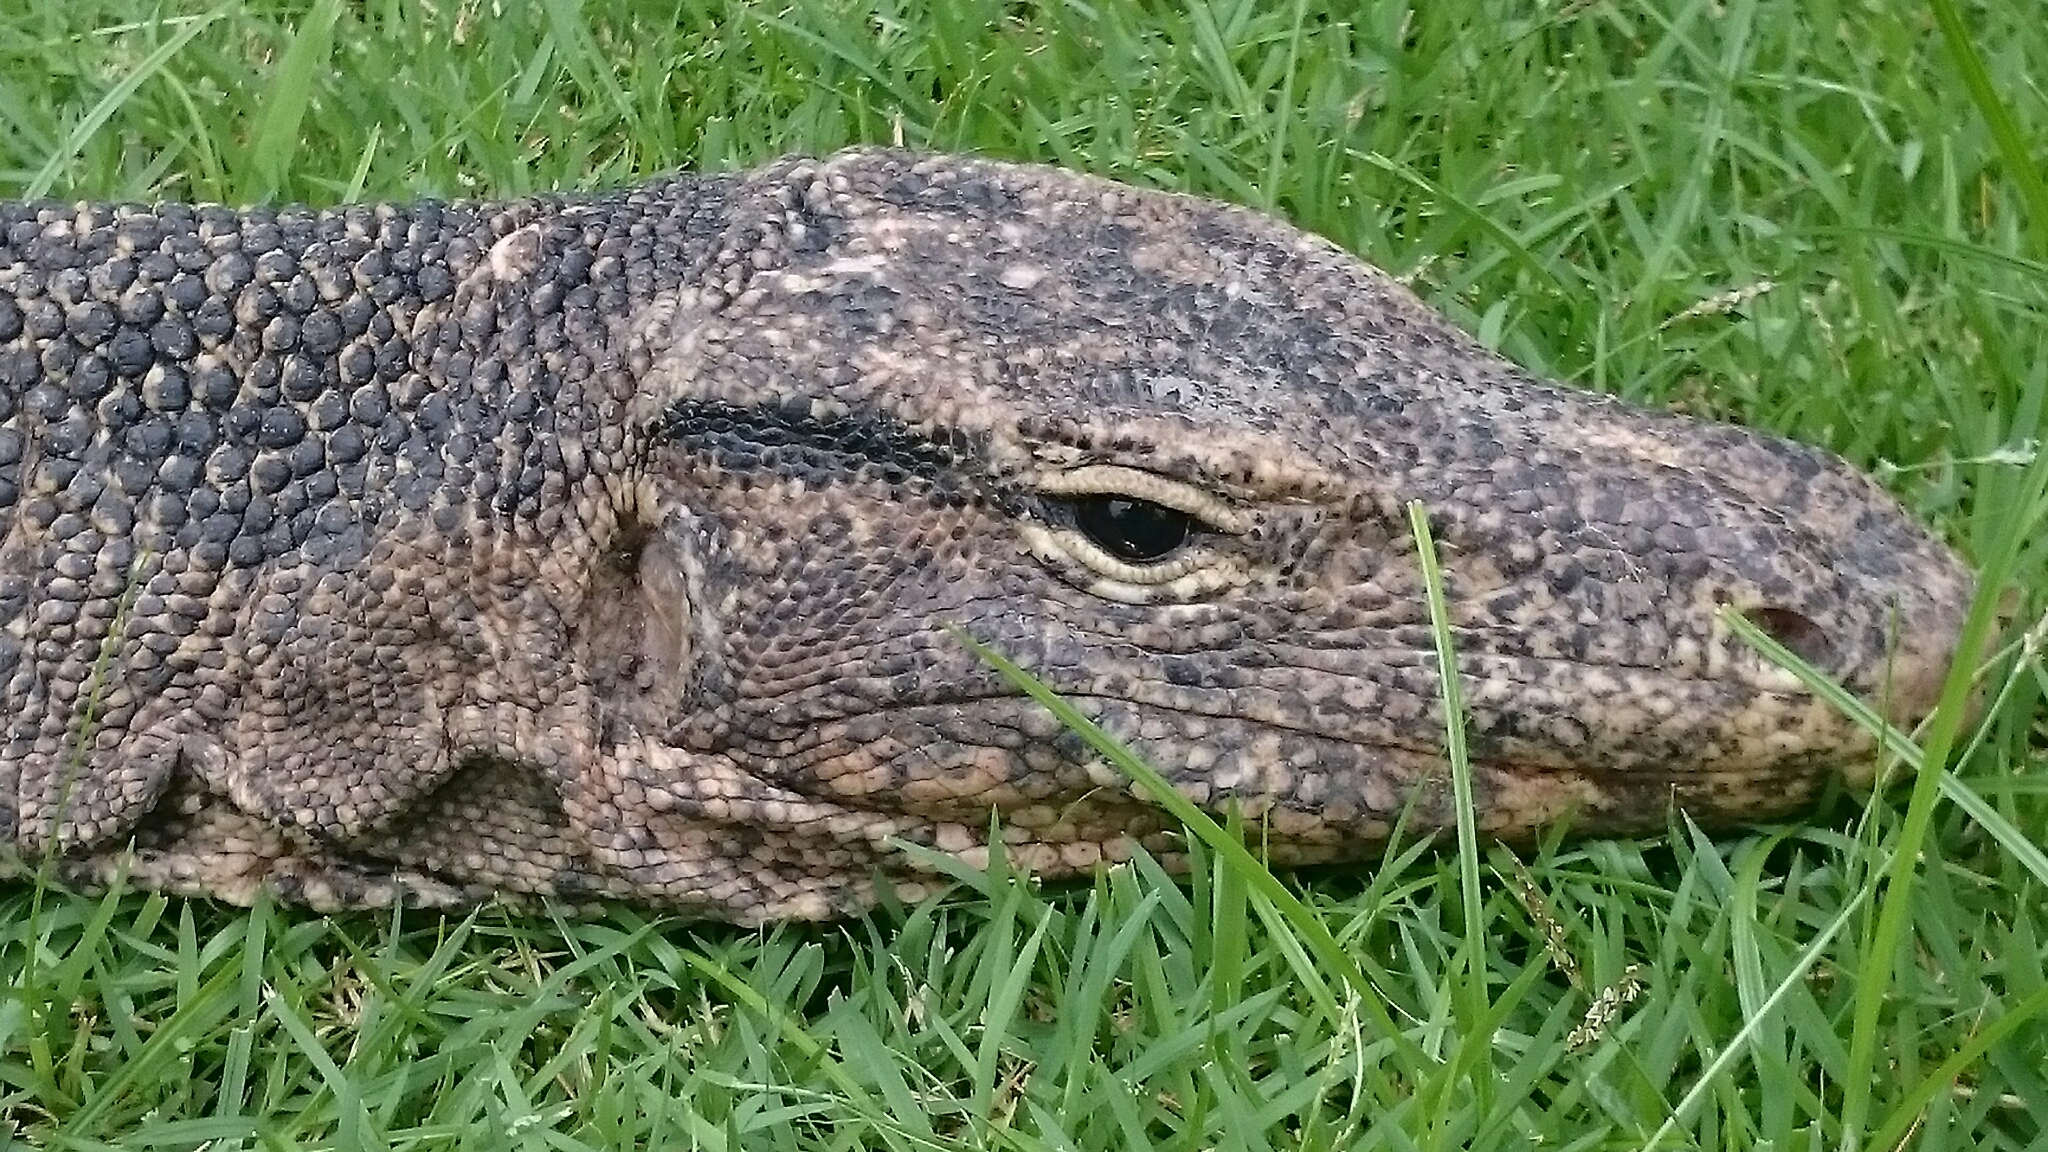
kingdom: Animalia
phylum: Chordata
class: Squamata
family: Varanidae
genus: Varanus
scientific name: Varanus salvator
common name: Common water monitor
